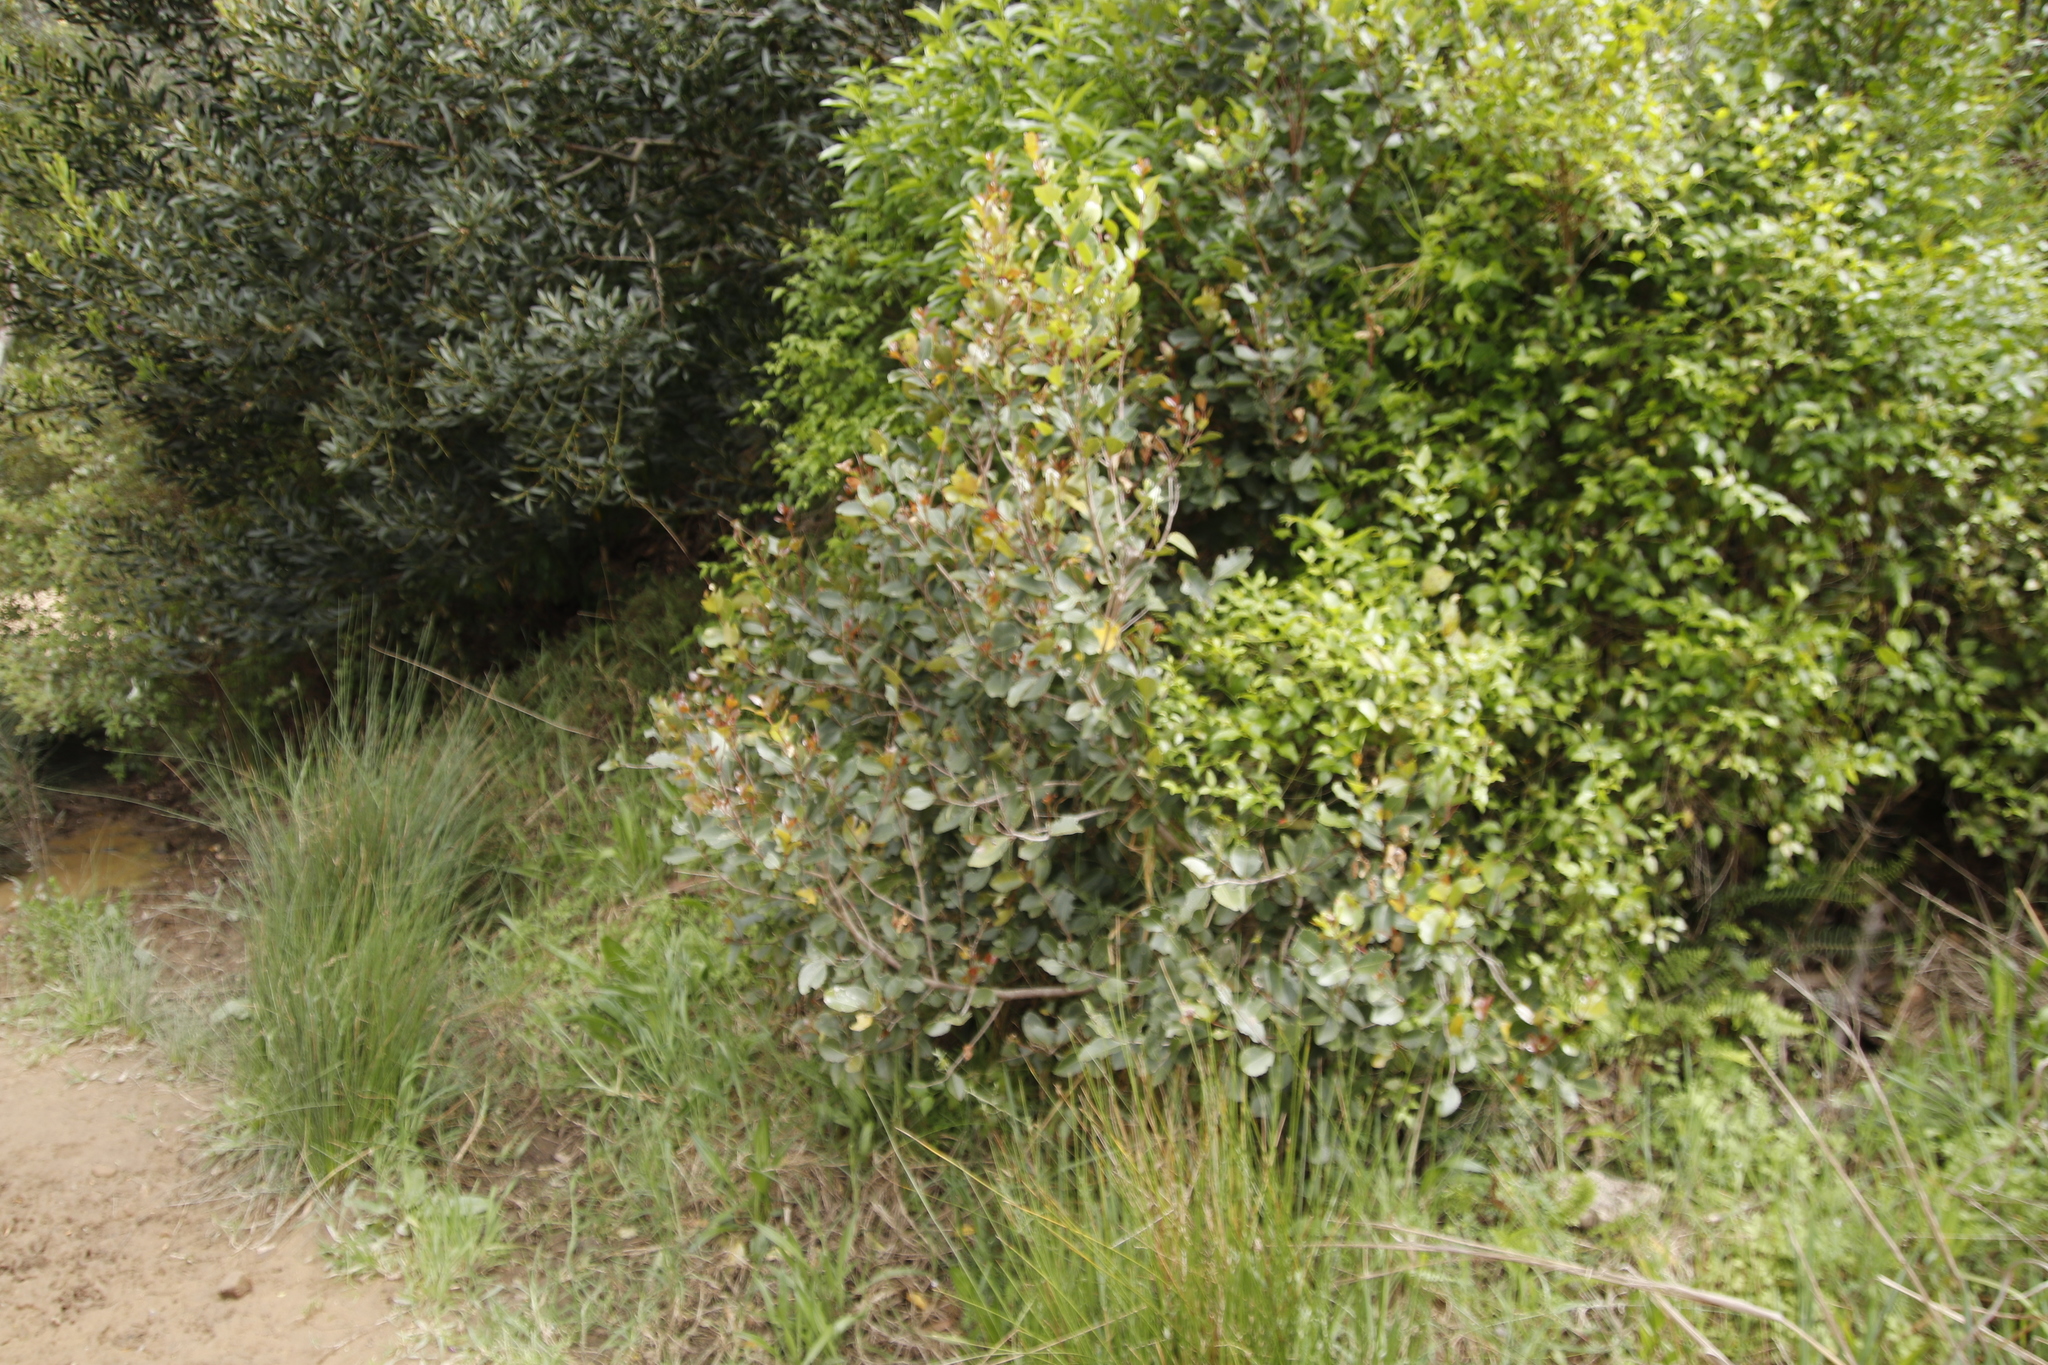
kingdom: Plantae
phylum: Tracheophyta
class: Magnoliopsida
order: Celastrales
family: Celastraceae
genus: Cassine
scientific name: Cassine peragua
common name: Cape saffron
